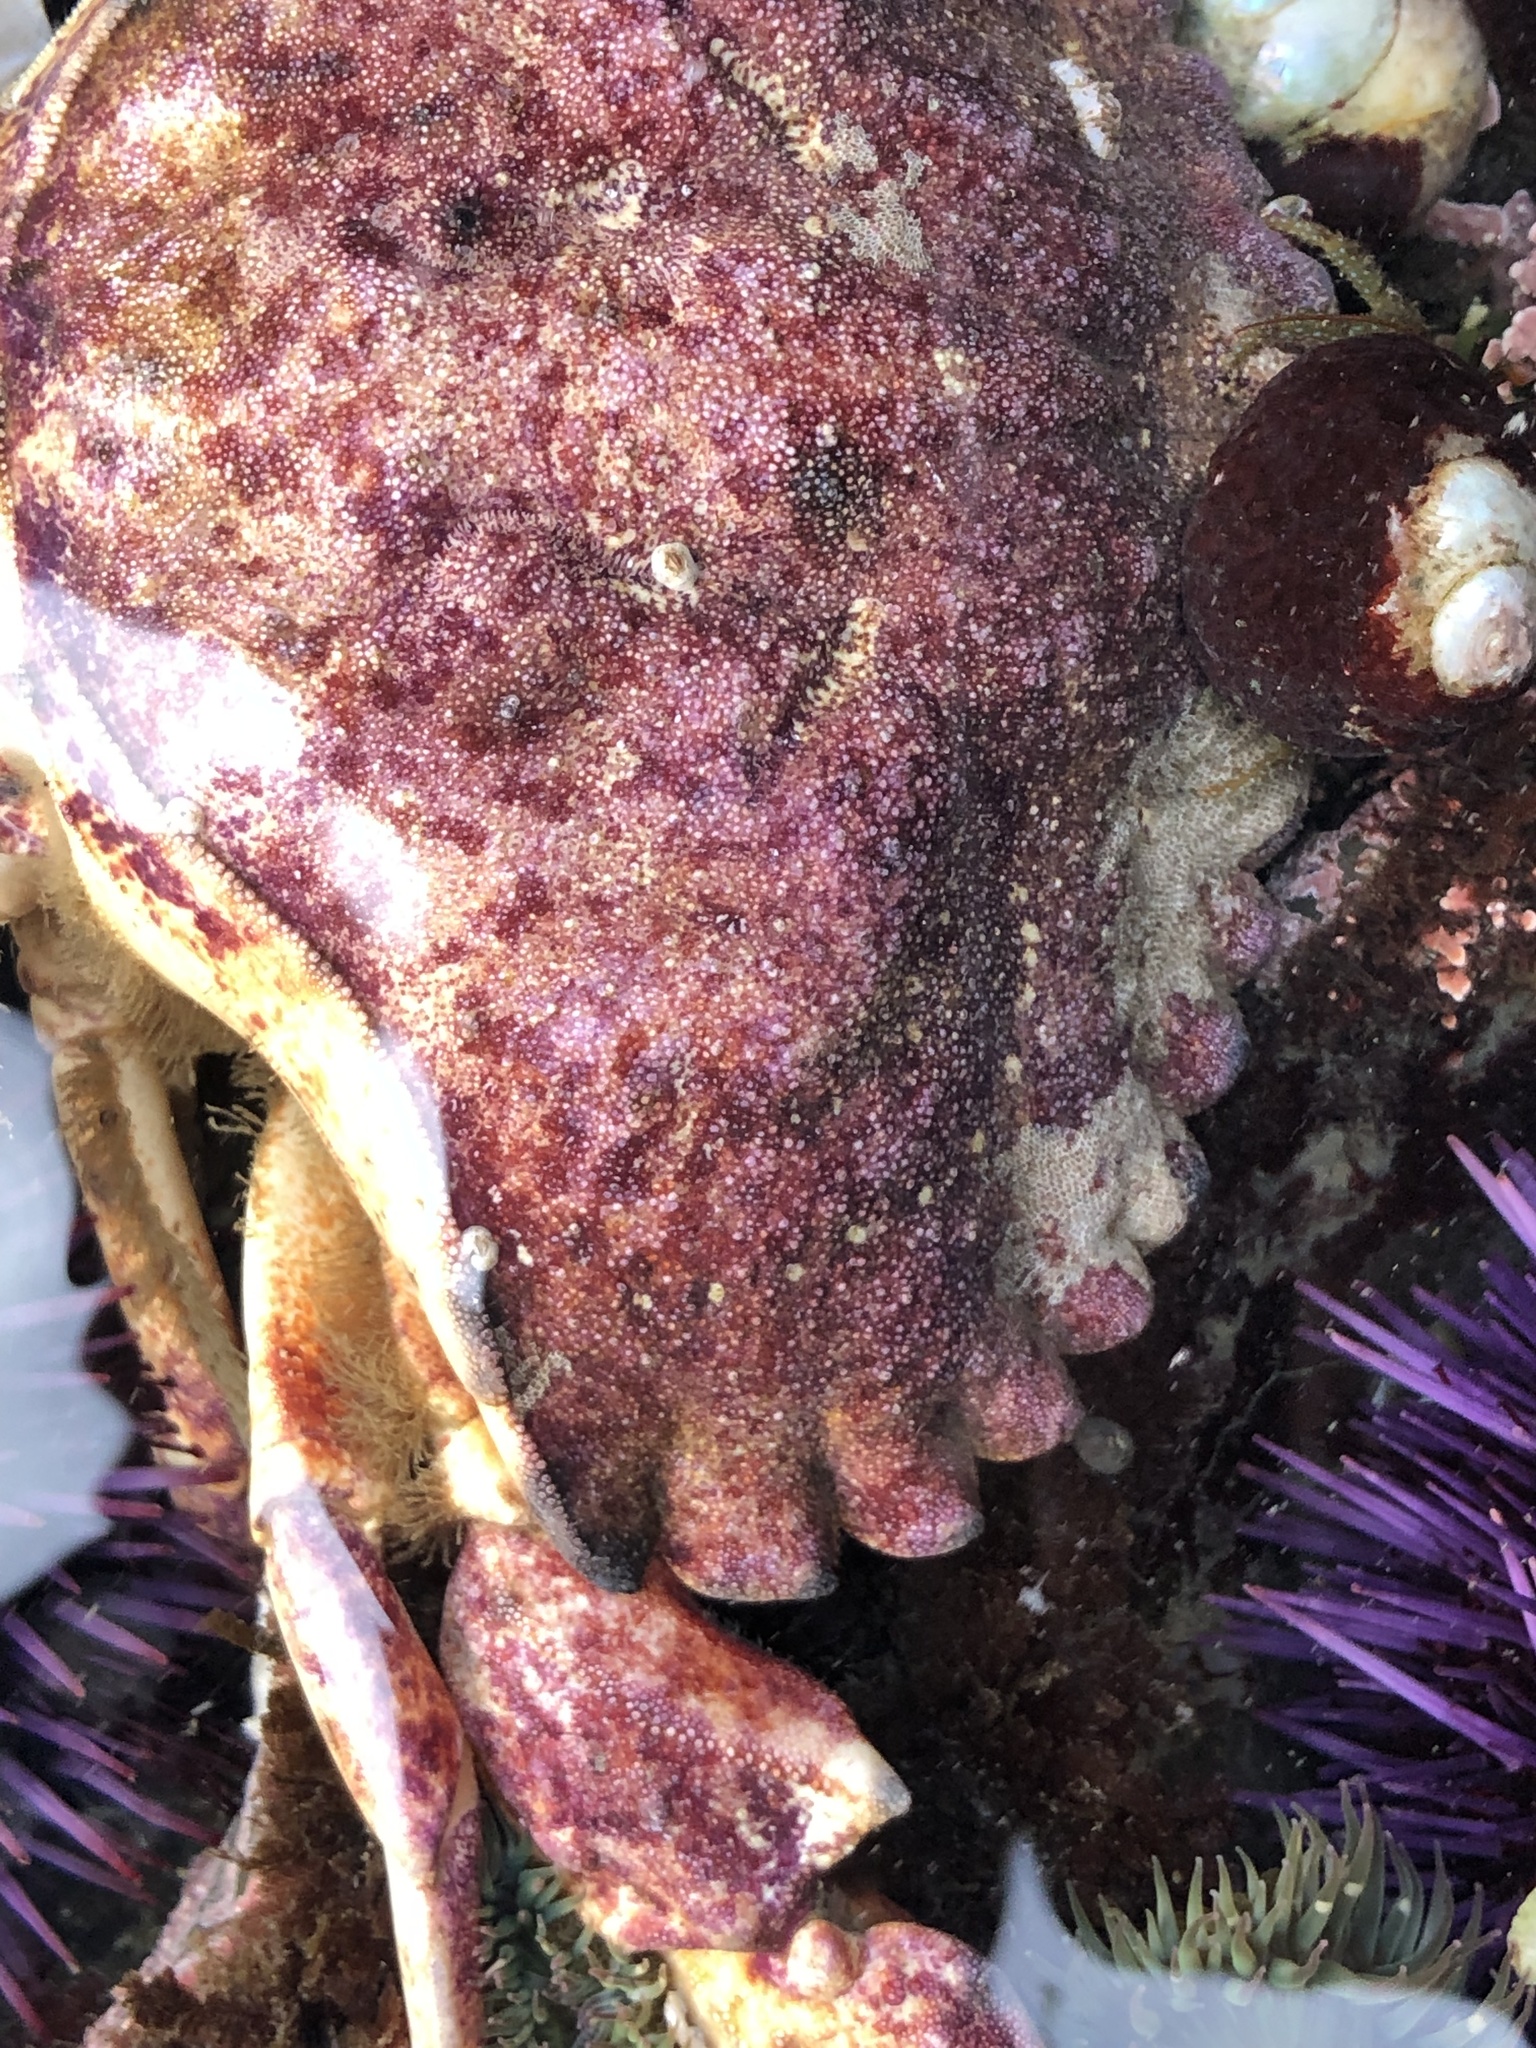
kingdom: Animalia
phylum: Arthropoda
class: Malacostraca
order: Decapoda
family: Cancridae
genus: Cancer
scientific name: Cancer productus
